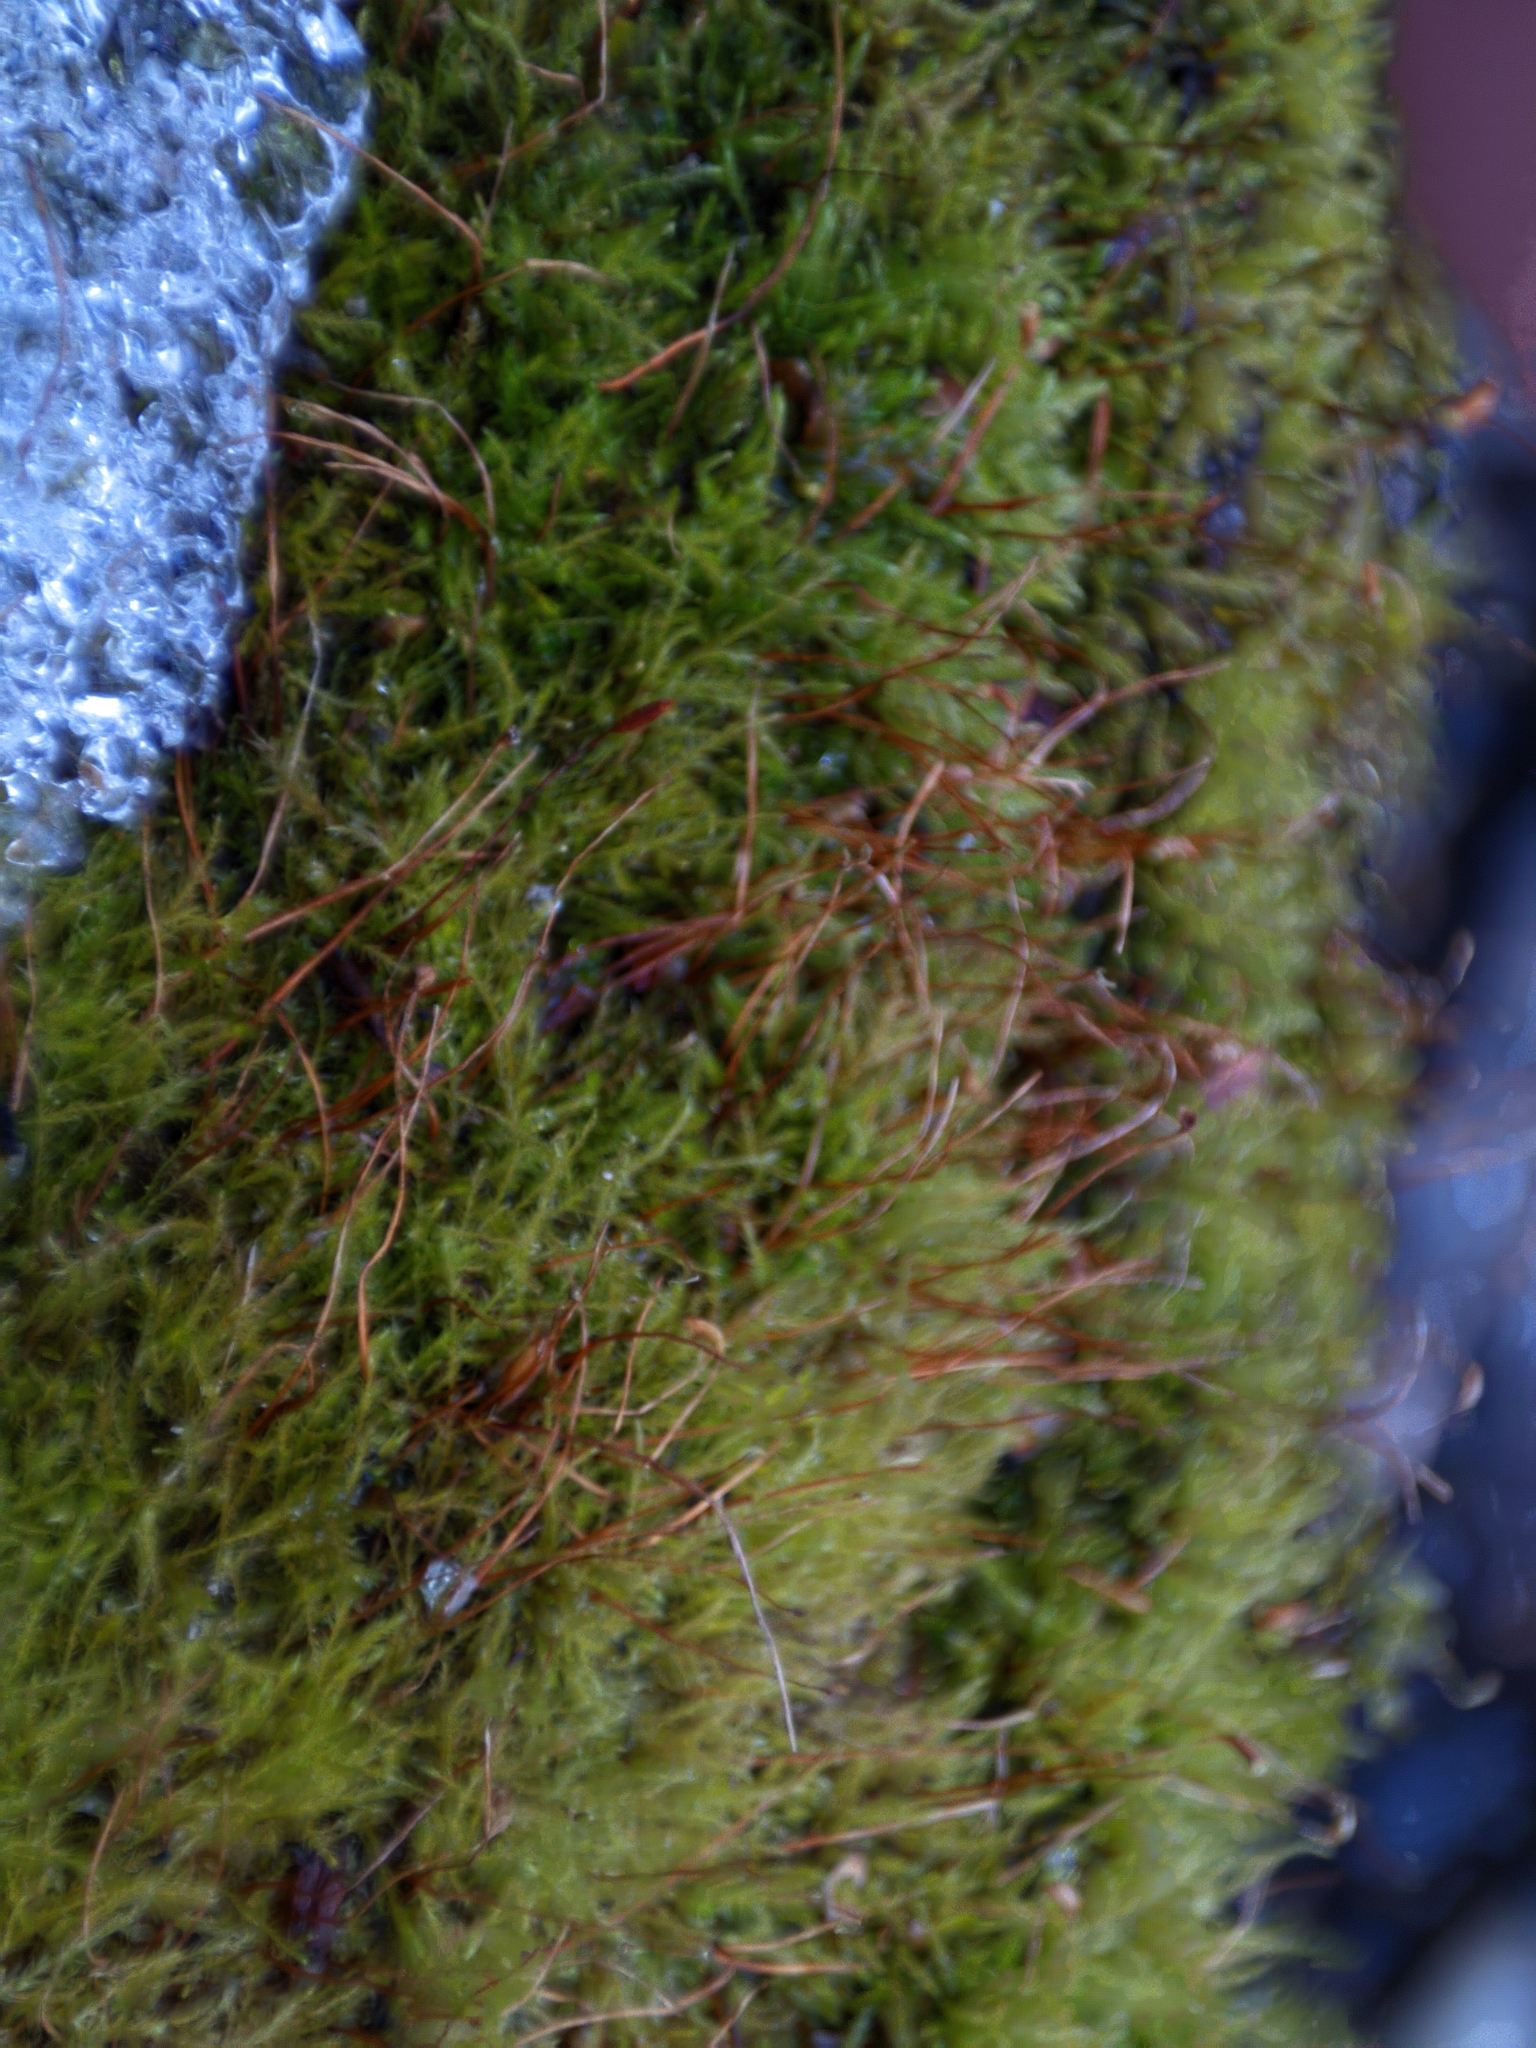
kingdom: Plantae
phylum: Bryophyta
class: Bryopsida
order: Hypnales
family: Amblystegiaceae
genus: Amblystegium
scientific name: Amblystegium serpens
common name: Jurkatzka's feather moss
